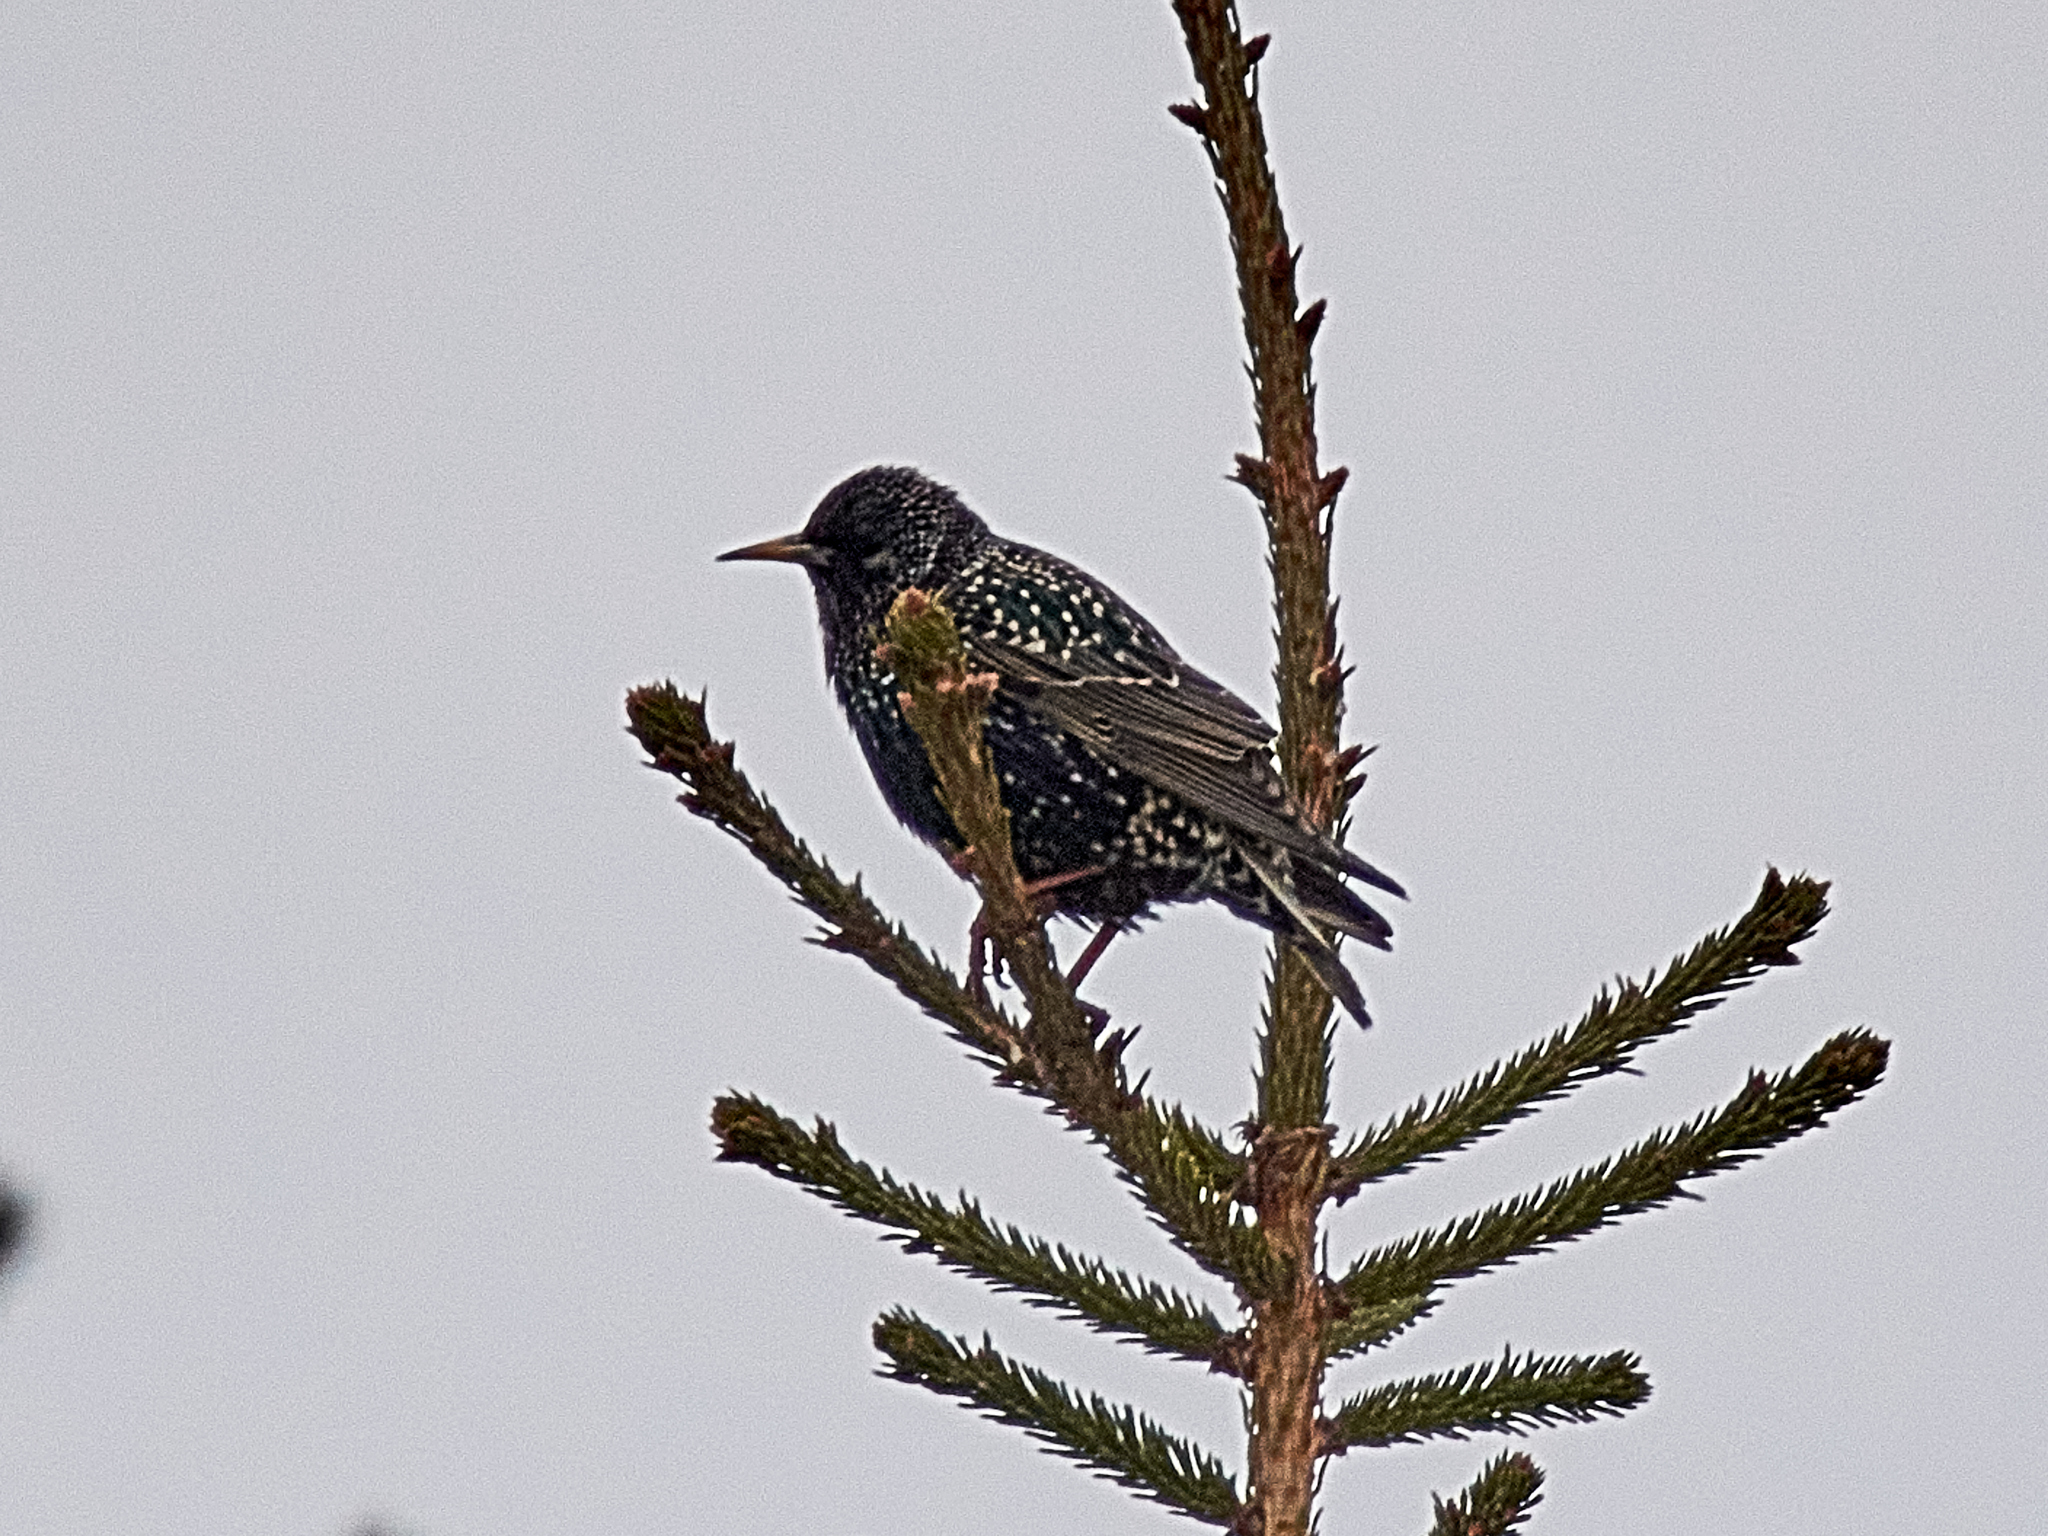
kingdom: Animalia
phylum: Chordata
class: Aves
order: Passeriformes
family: Sturnidae
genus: Sturnus
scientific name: Sturnus vulgaris
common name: Common starling
